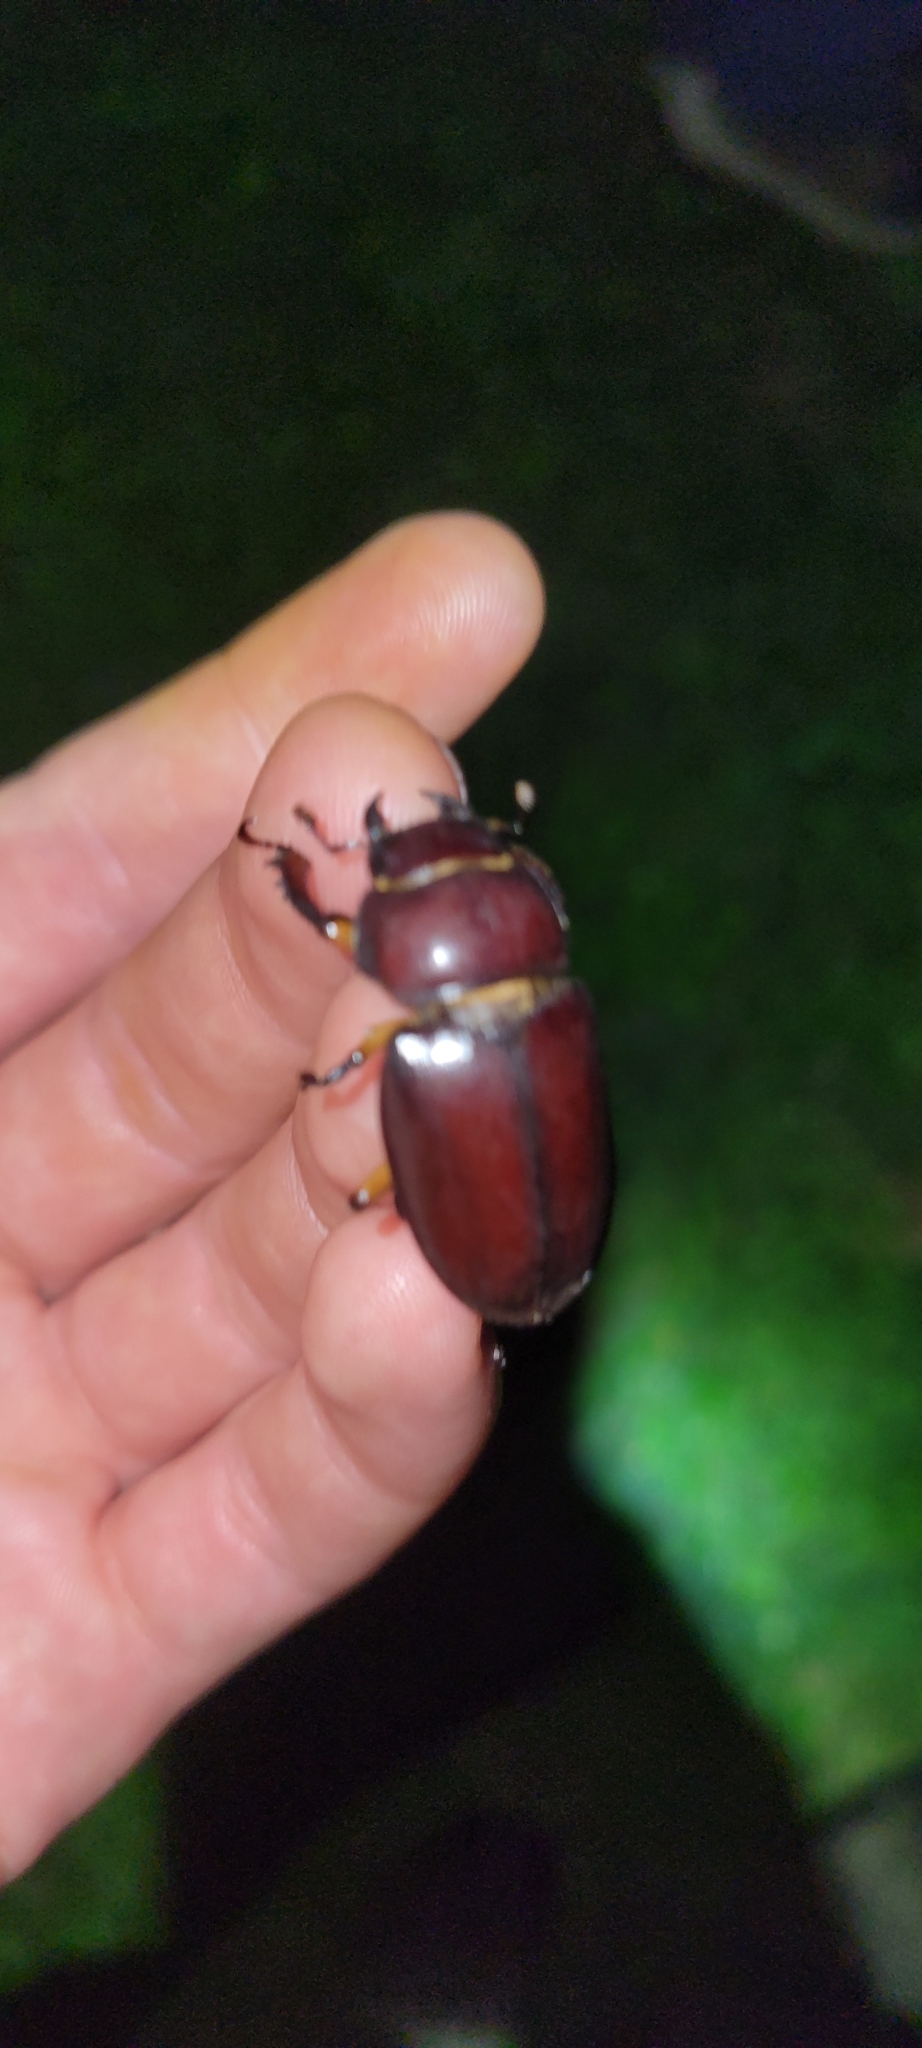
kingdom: Animalia
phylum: Arthropoda
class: Insecta
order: Coleoptera
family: Lucanidae
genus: Lucanus
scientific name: Lucanus capreolus
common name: Stag beetle
